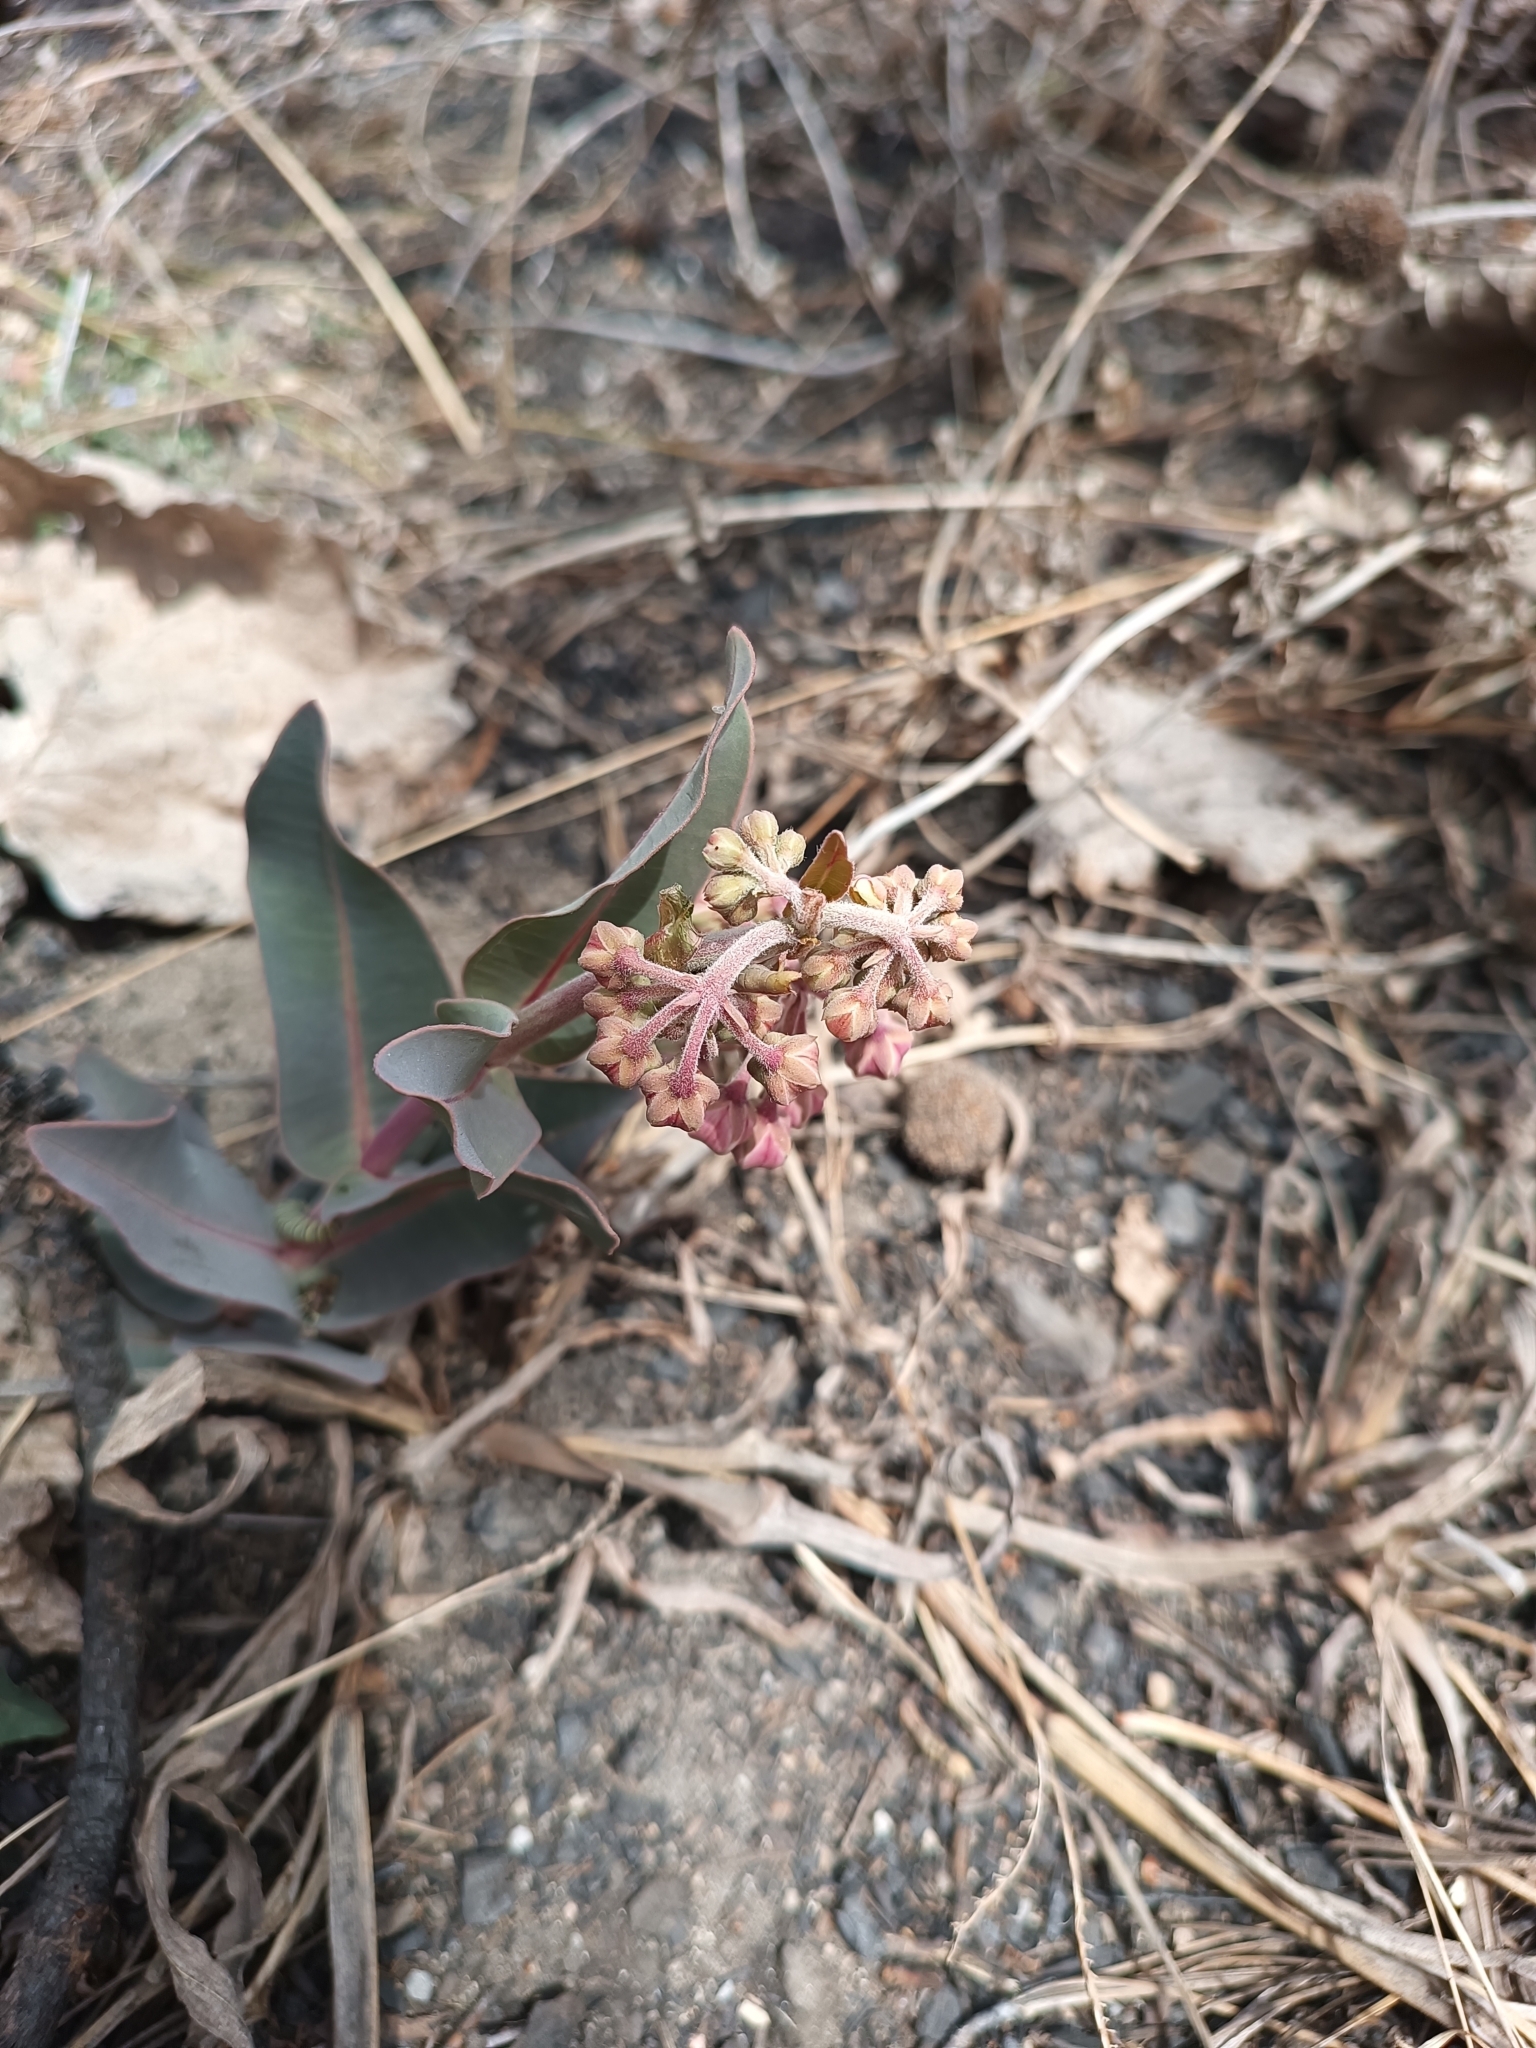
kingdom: Plantae
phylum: Tracheophyta
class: Magnoliopsida
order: Gentianales
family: Apocynaceae
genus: Asclepias
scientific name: Asclepias glaucescens
